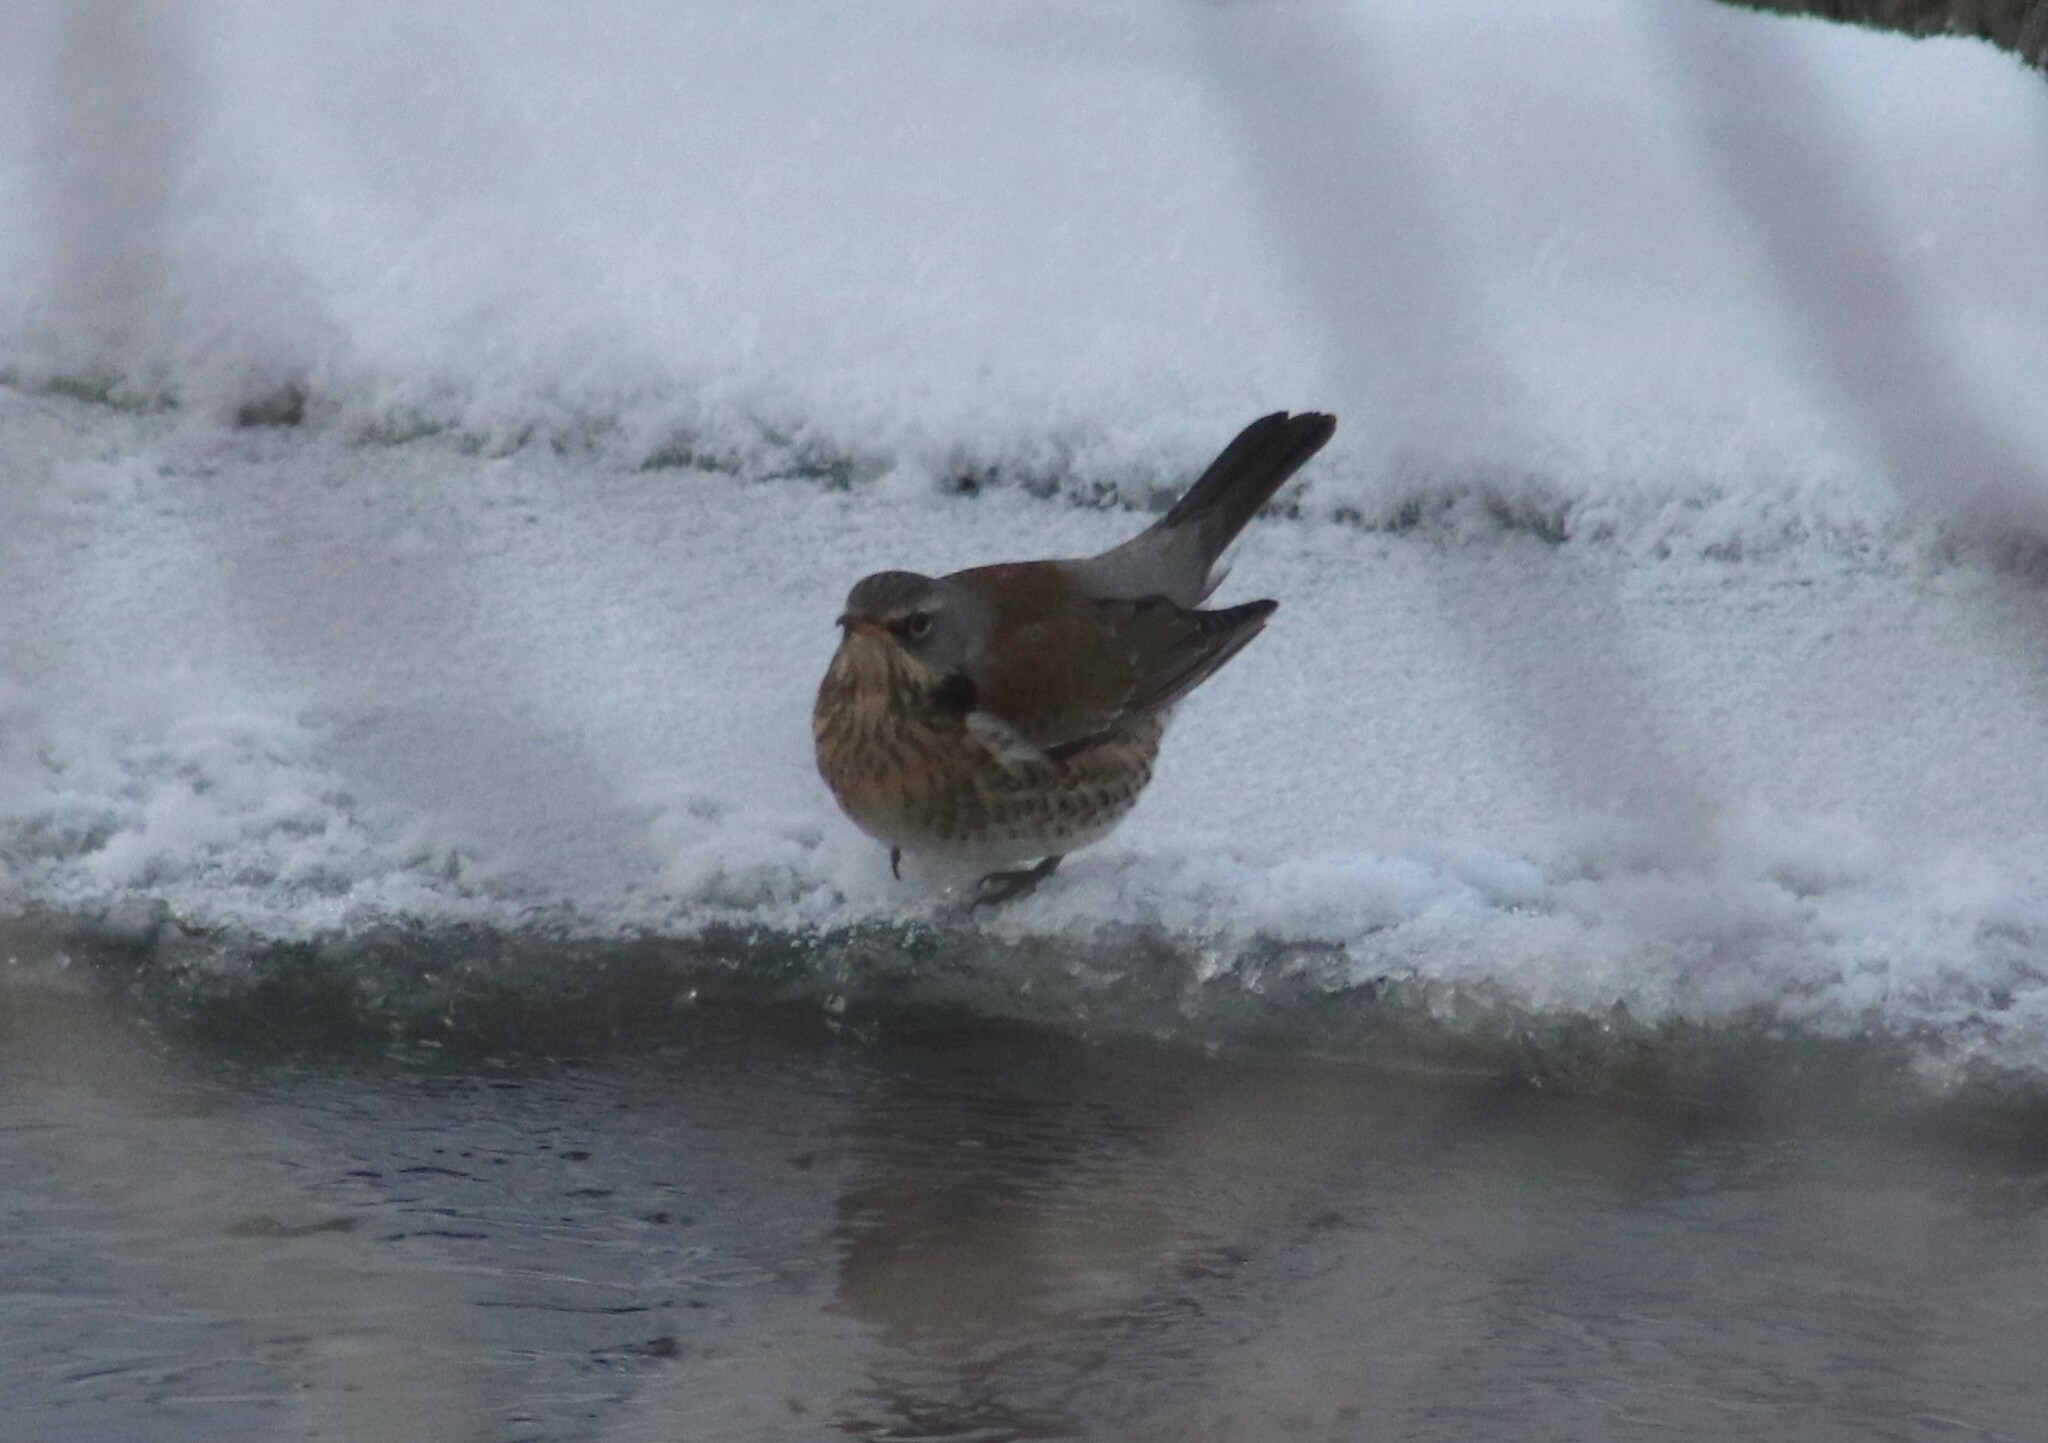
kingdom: Animalia
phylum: Chordata
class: Aves
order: Passeriformes
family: Turdidae
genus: Turdus
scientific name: Turdus pilaris
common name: Fieldfare
